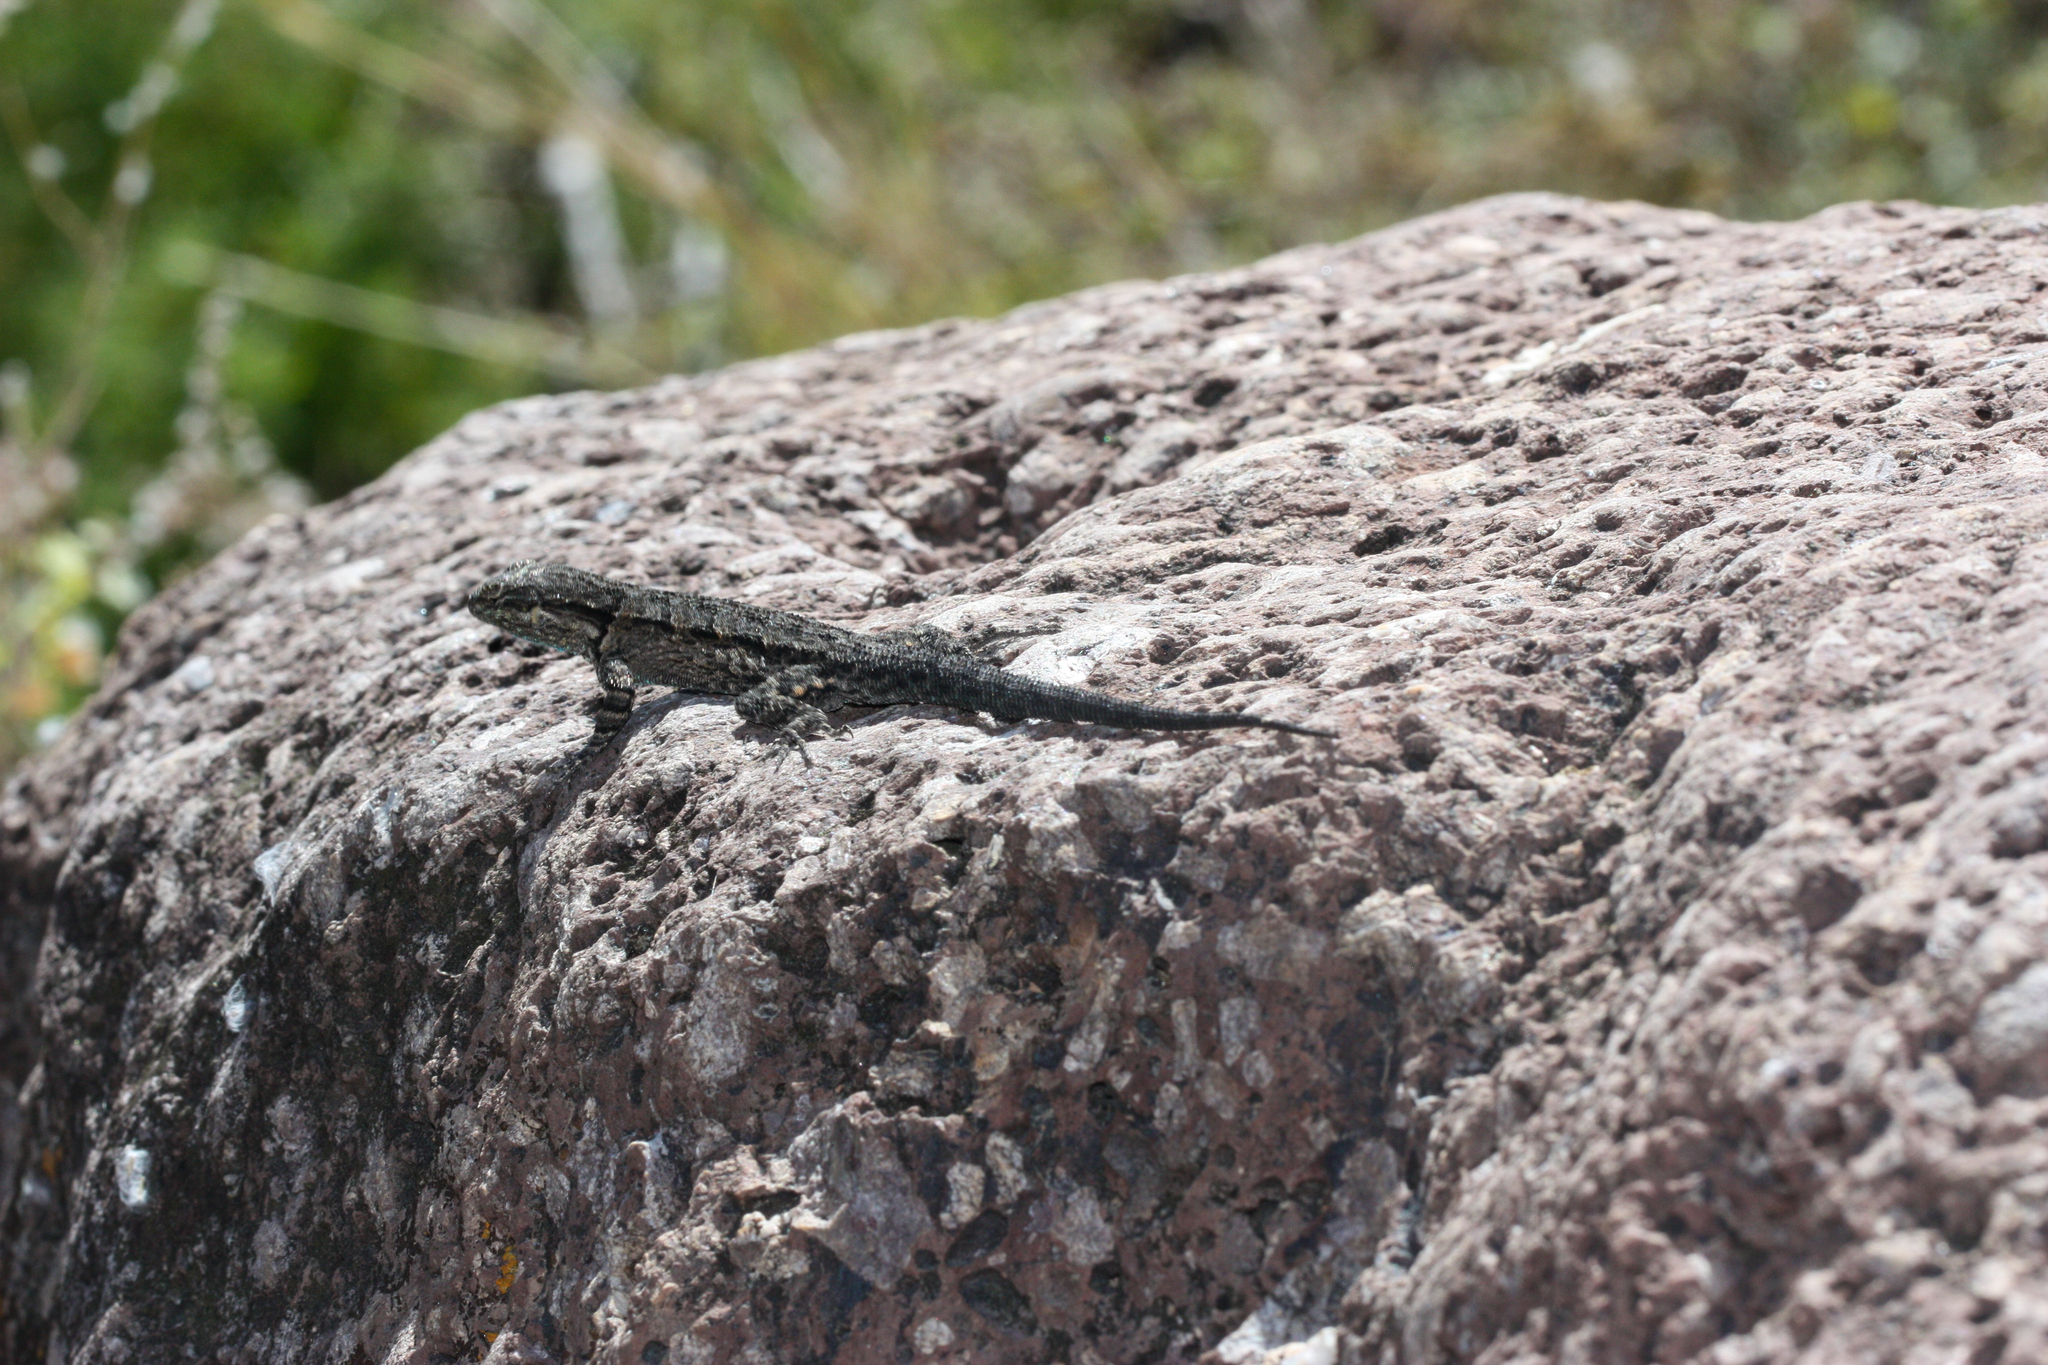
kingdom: Animalia
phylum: Chordata
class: Squamata
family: Phrynosomatidae
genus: Urosaurus
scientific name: Urosaurus ornatus
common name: Ornate tree lizard
